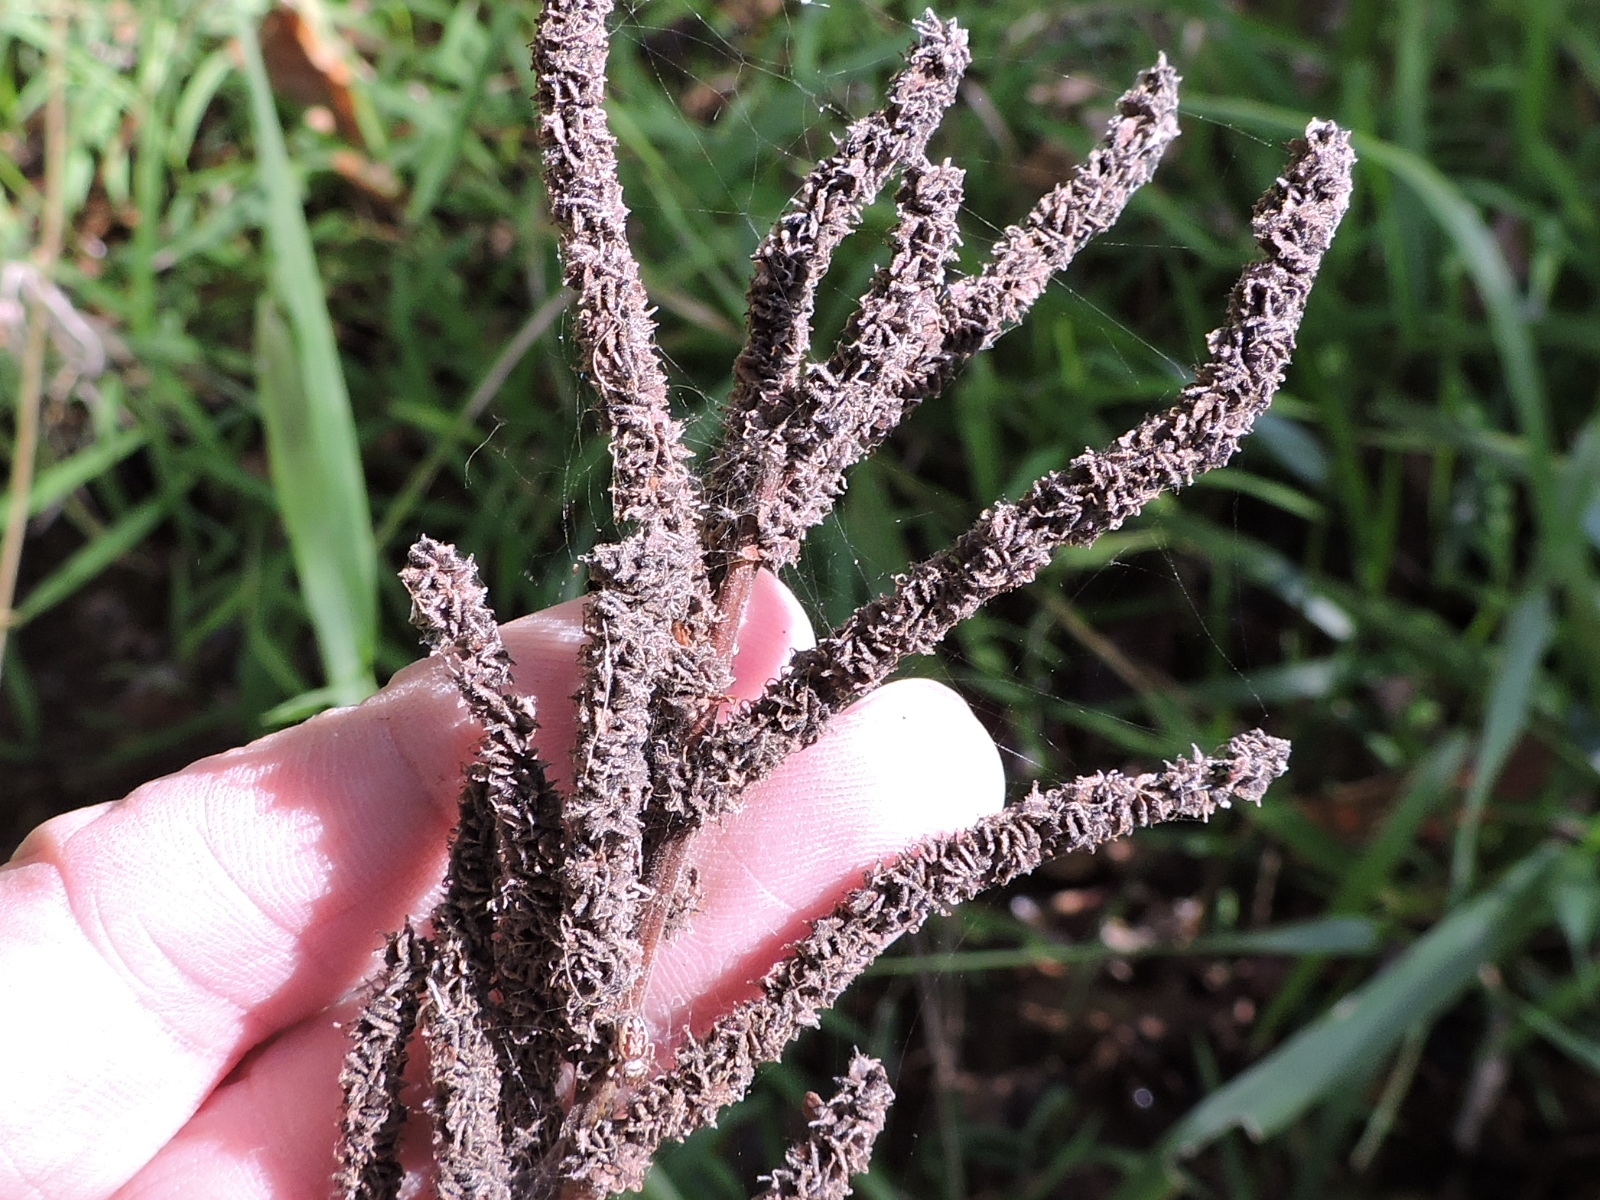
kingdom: Plantae
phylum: Tracheophyta
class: Magnoliopsida
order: Rosales
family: Urticaceae
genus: Boehmeria
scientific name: Boehmeria cylindrica
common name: Bog-hemp
